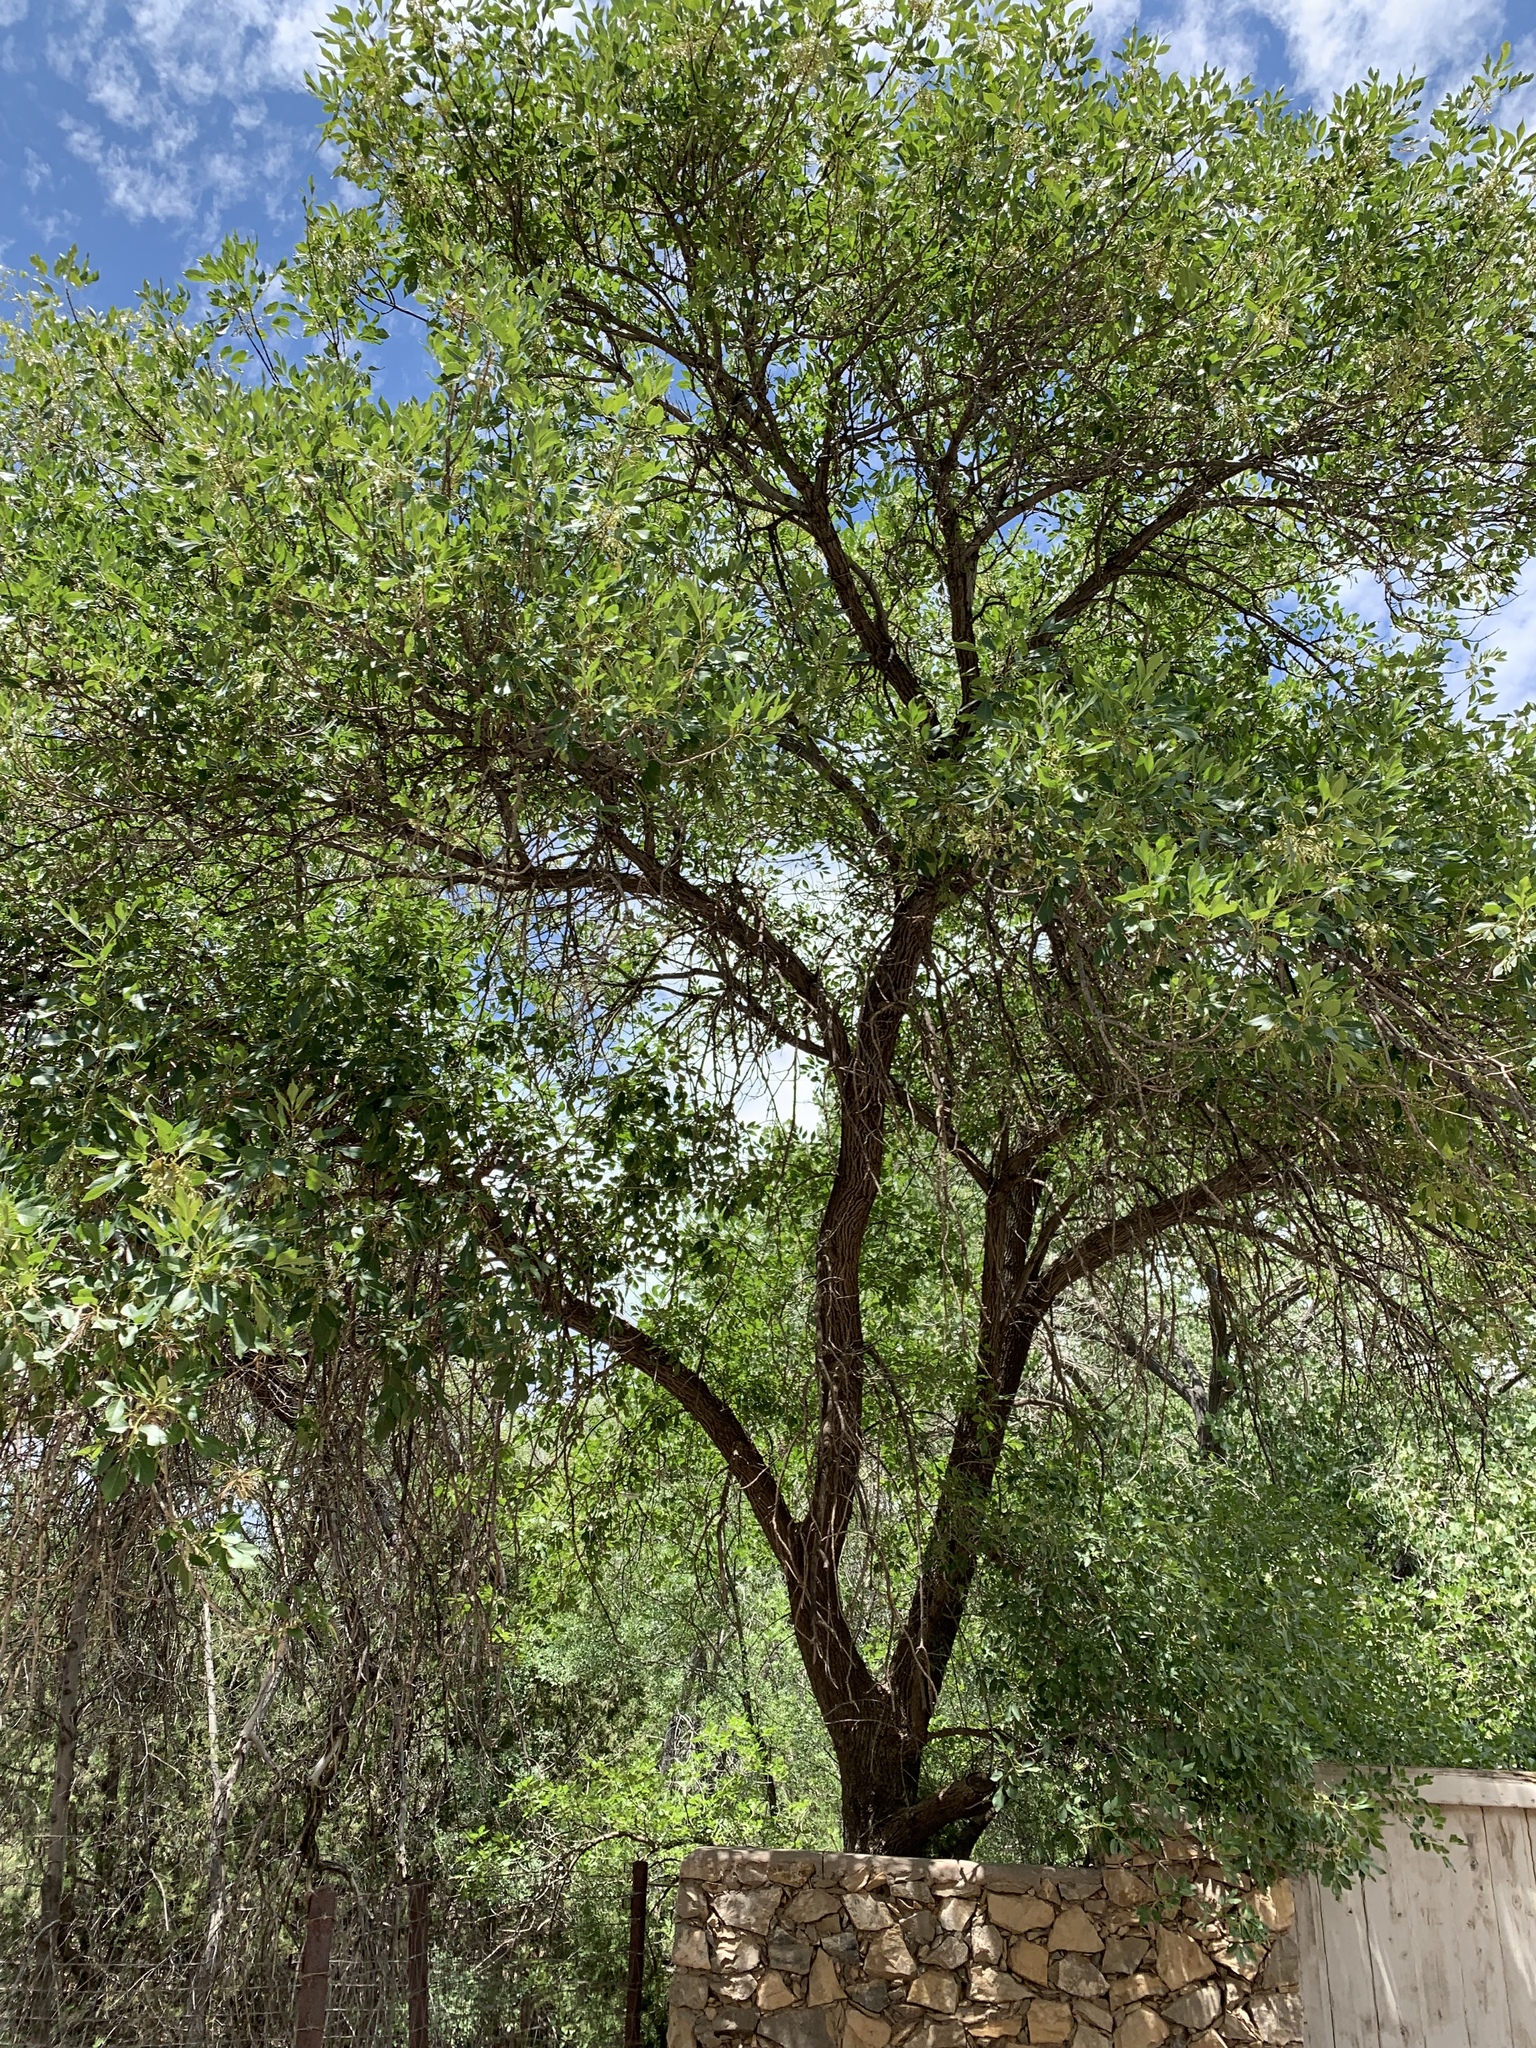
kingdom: Plantae
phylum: Tracheophyta
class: Magnoliopsida
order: Lamiales
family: Oleaceae
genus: Fraxinus
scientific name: Fraxinus velutina
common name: Arizon ash
